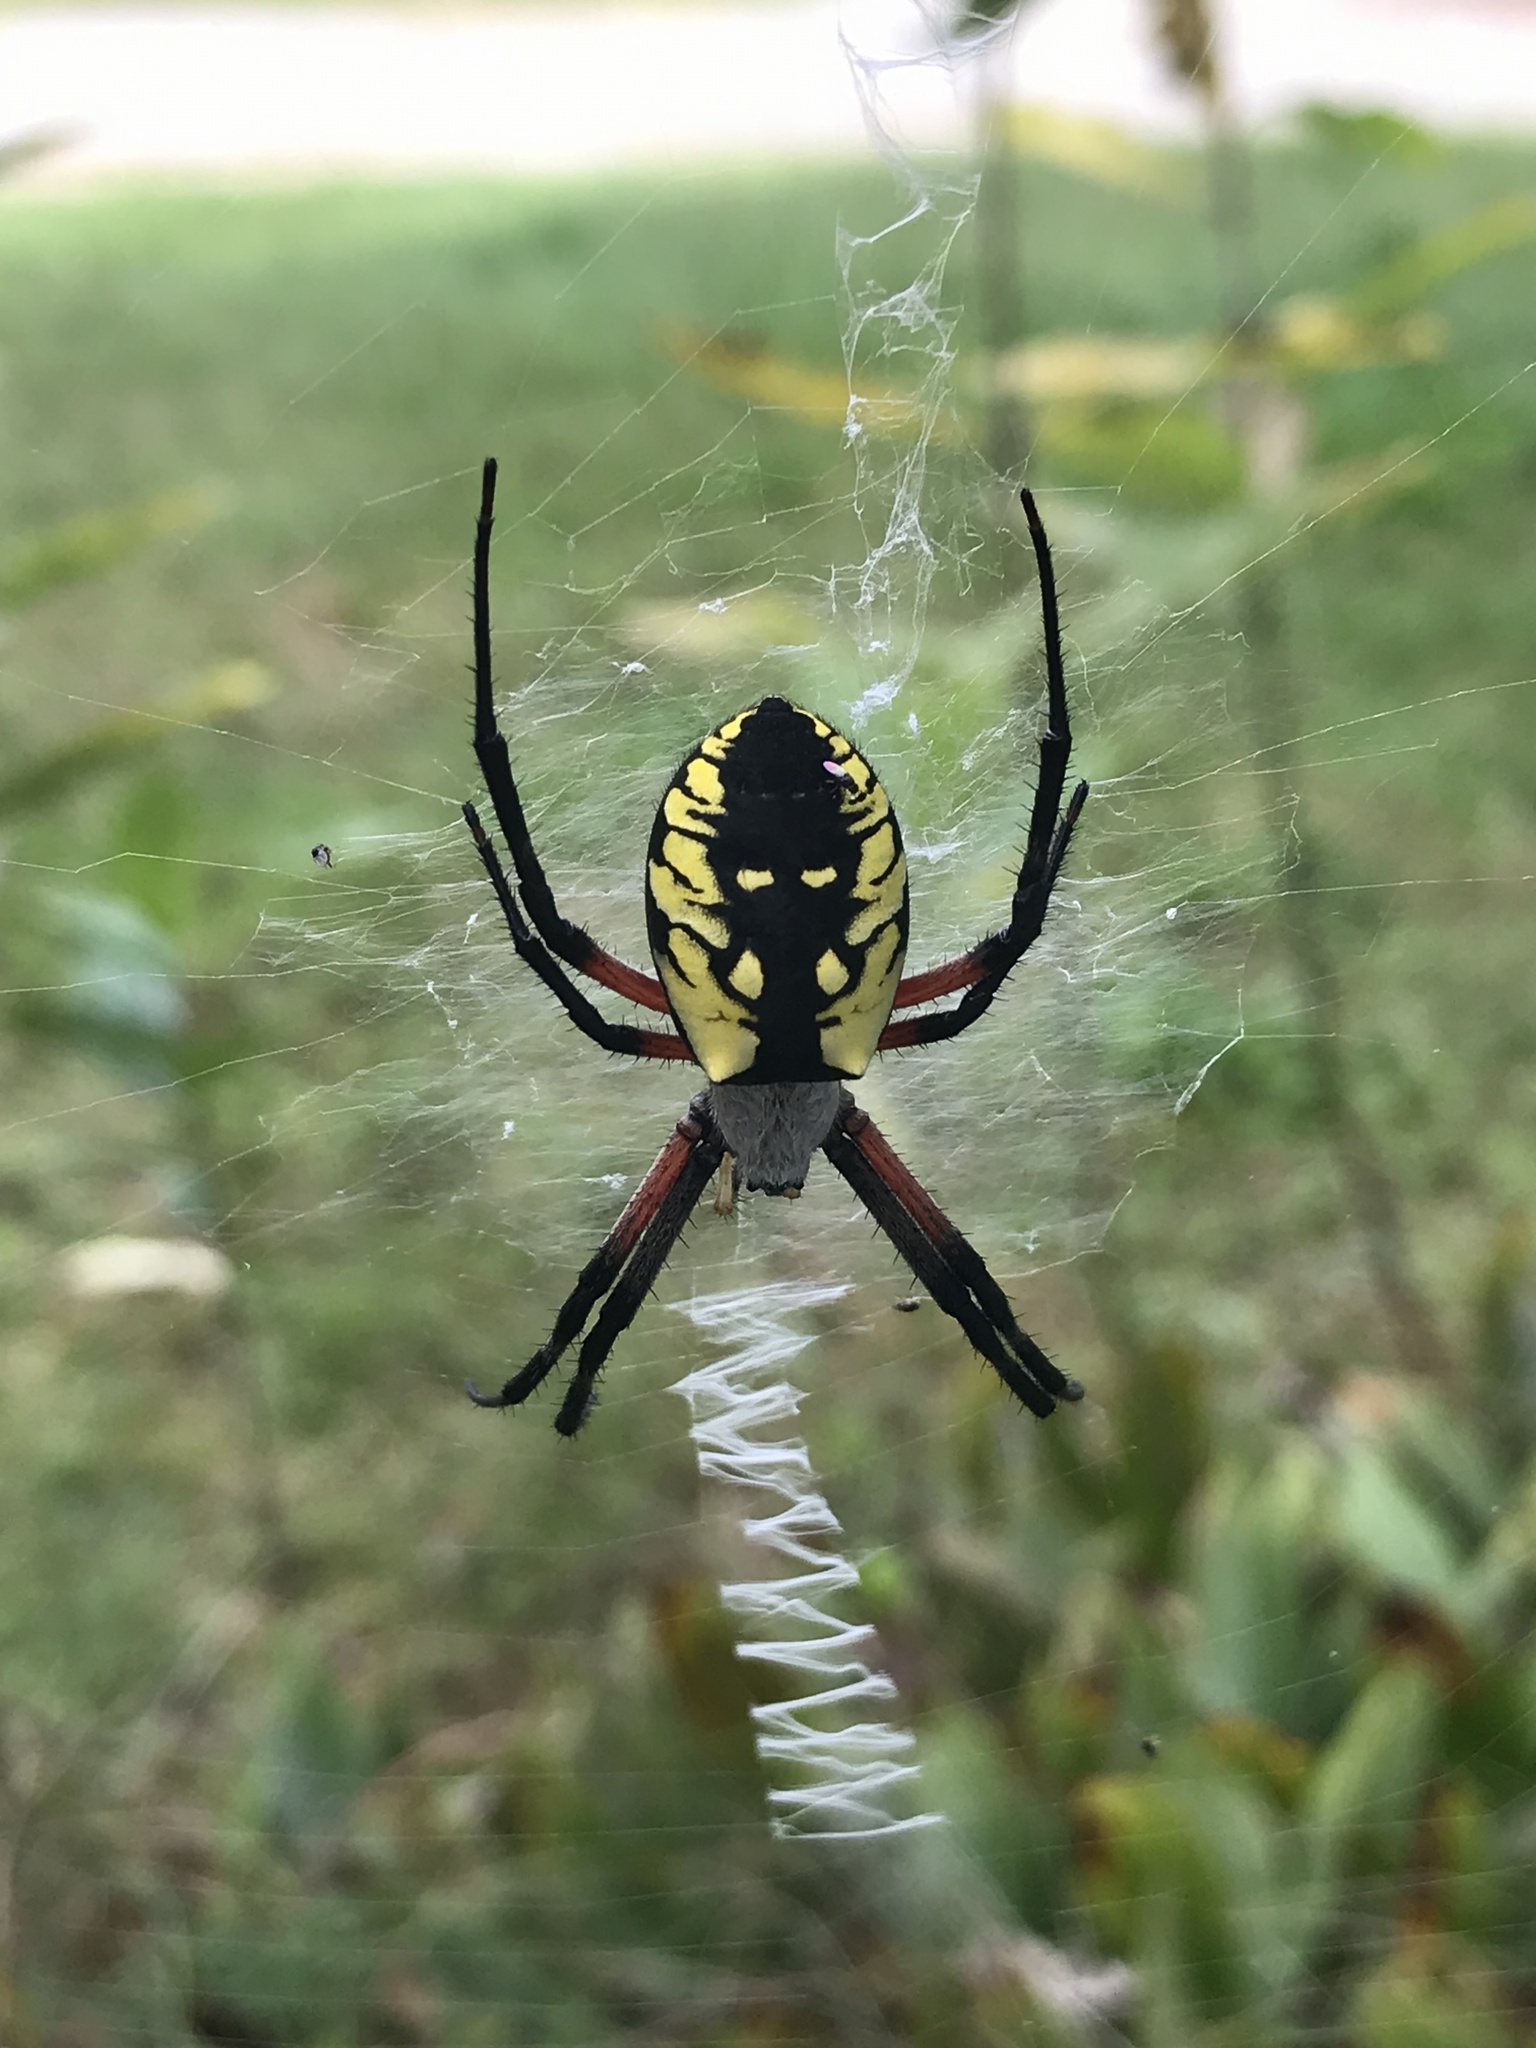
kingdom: Animalia
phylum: Arthropoda
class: Arachnida
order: Araneae
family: Araneidae
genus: Argiope
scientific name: Argiope aurantia
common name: Orb weavers
